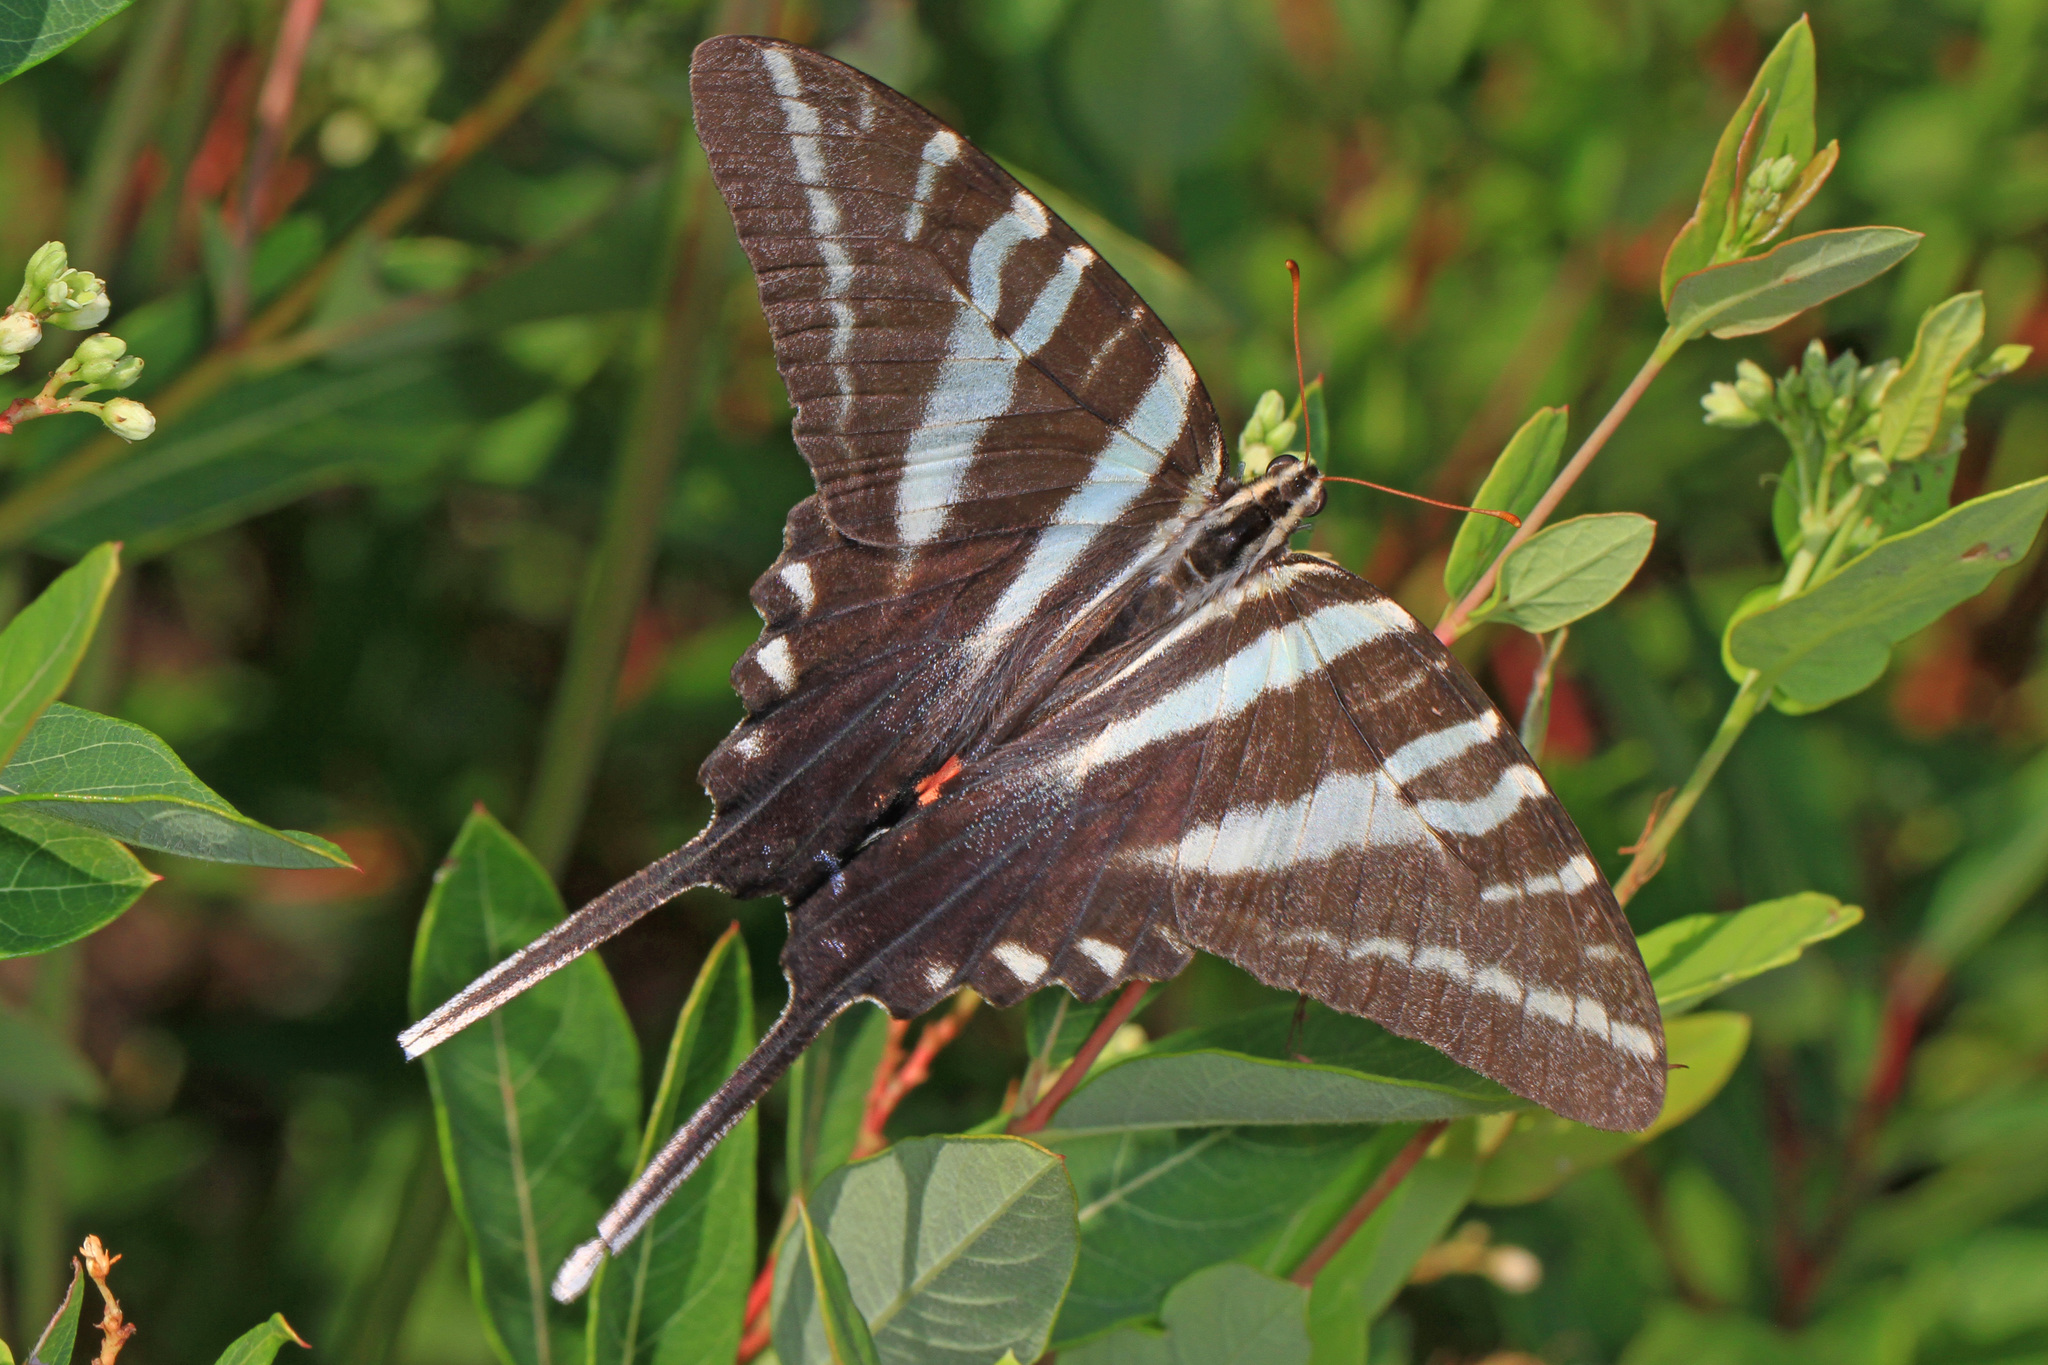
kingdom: Animalia
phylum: Arthropoda
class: Insecta
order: Lepidoptera
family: Papilionidae
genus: Protographium
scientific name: Protographium marcellus
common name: Zebra swallowtail
